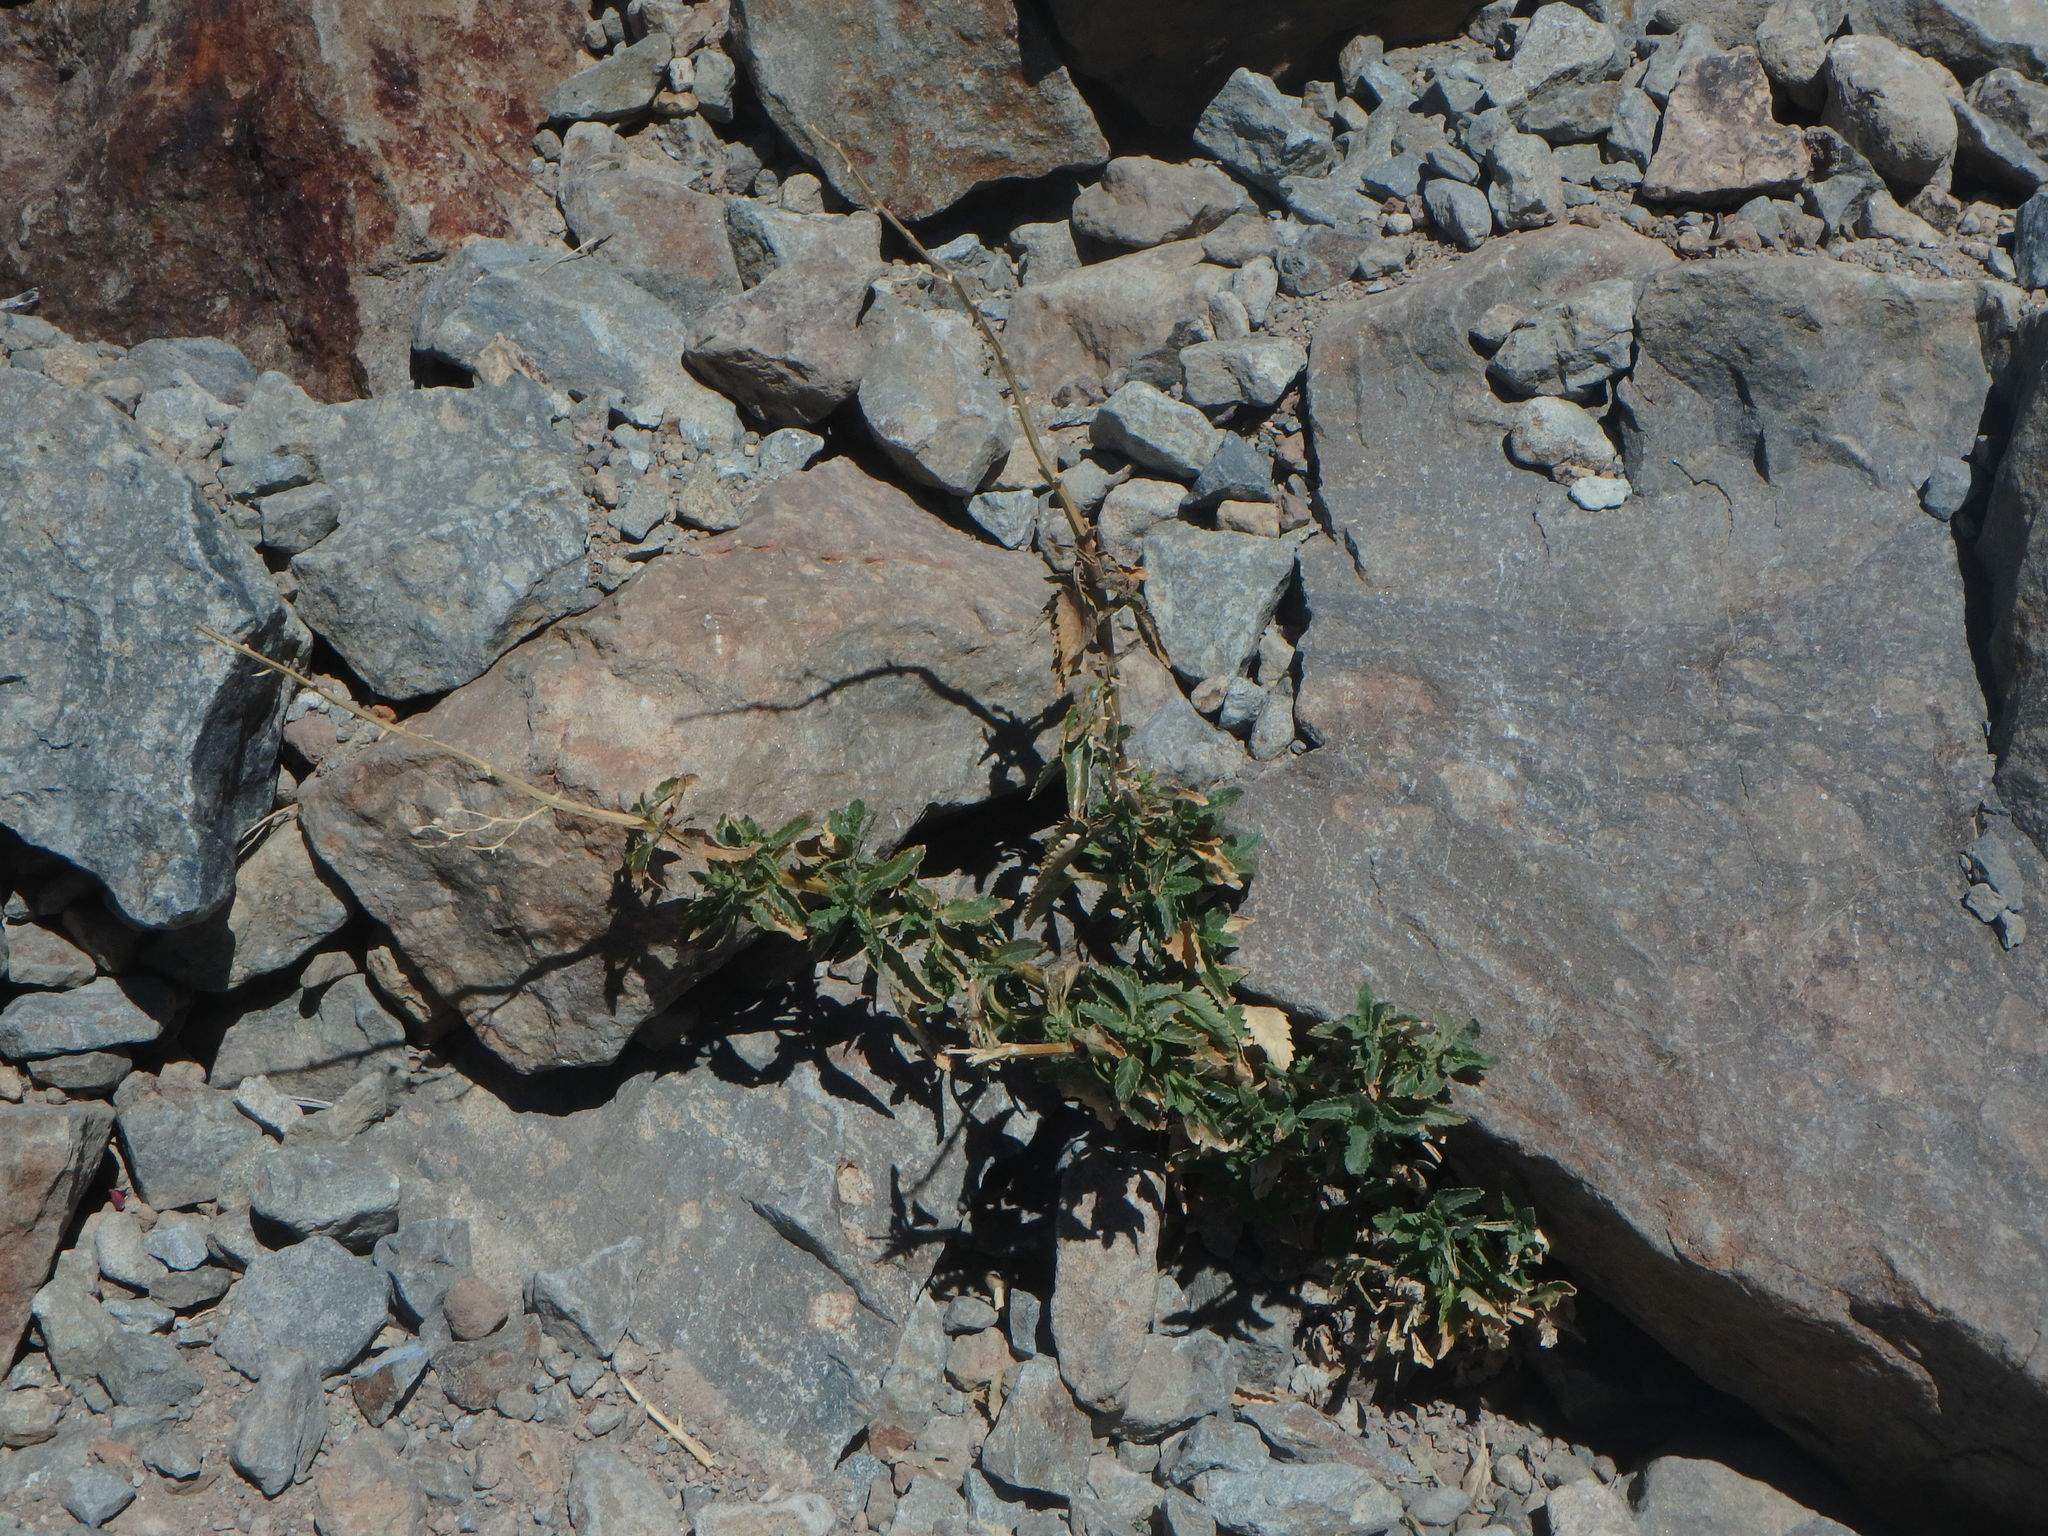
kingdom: Plantae
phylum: Tracheophyta
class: Magnoliopsida
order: Lamiales
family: Scrophulariaceae
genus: Scrophularia
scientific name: Scrophularia glabrata
